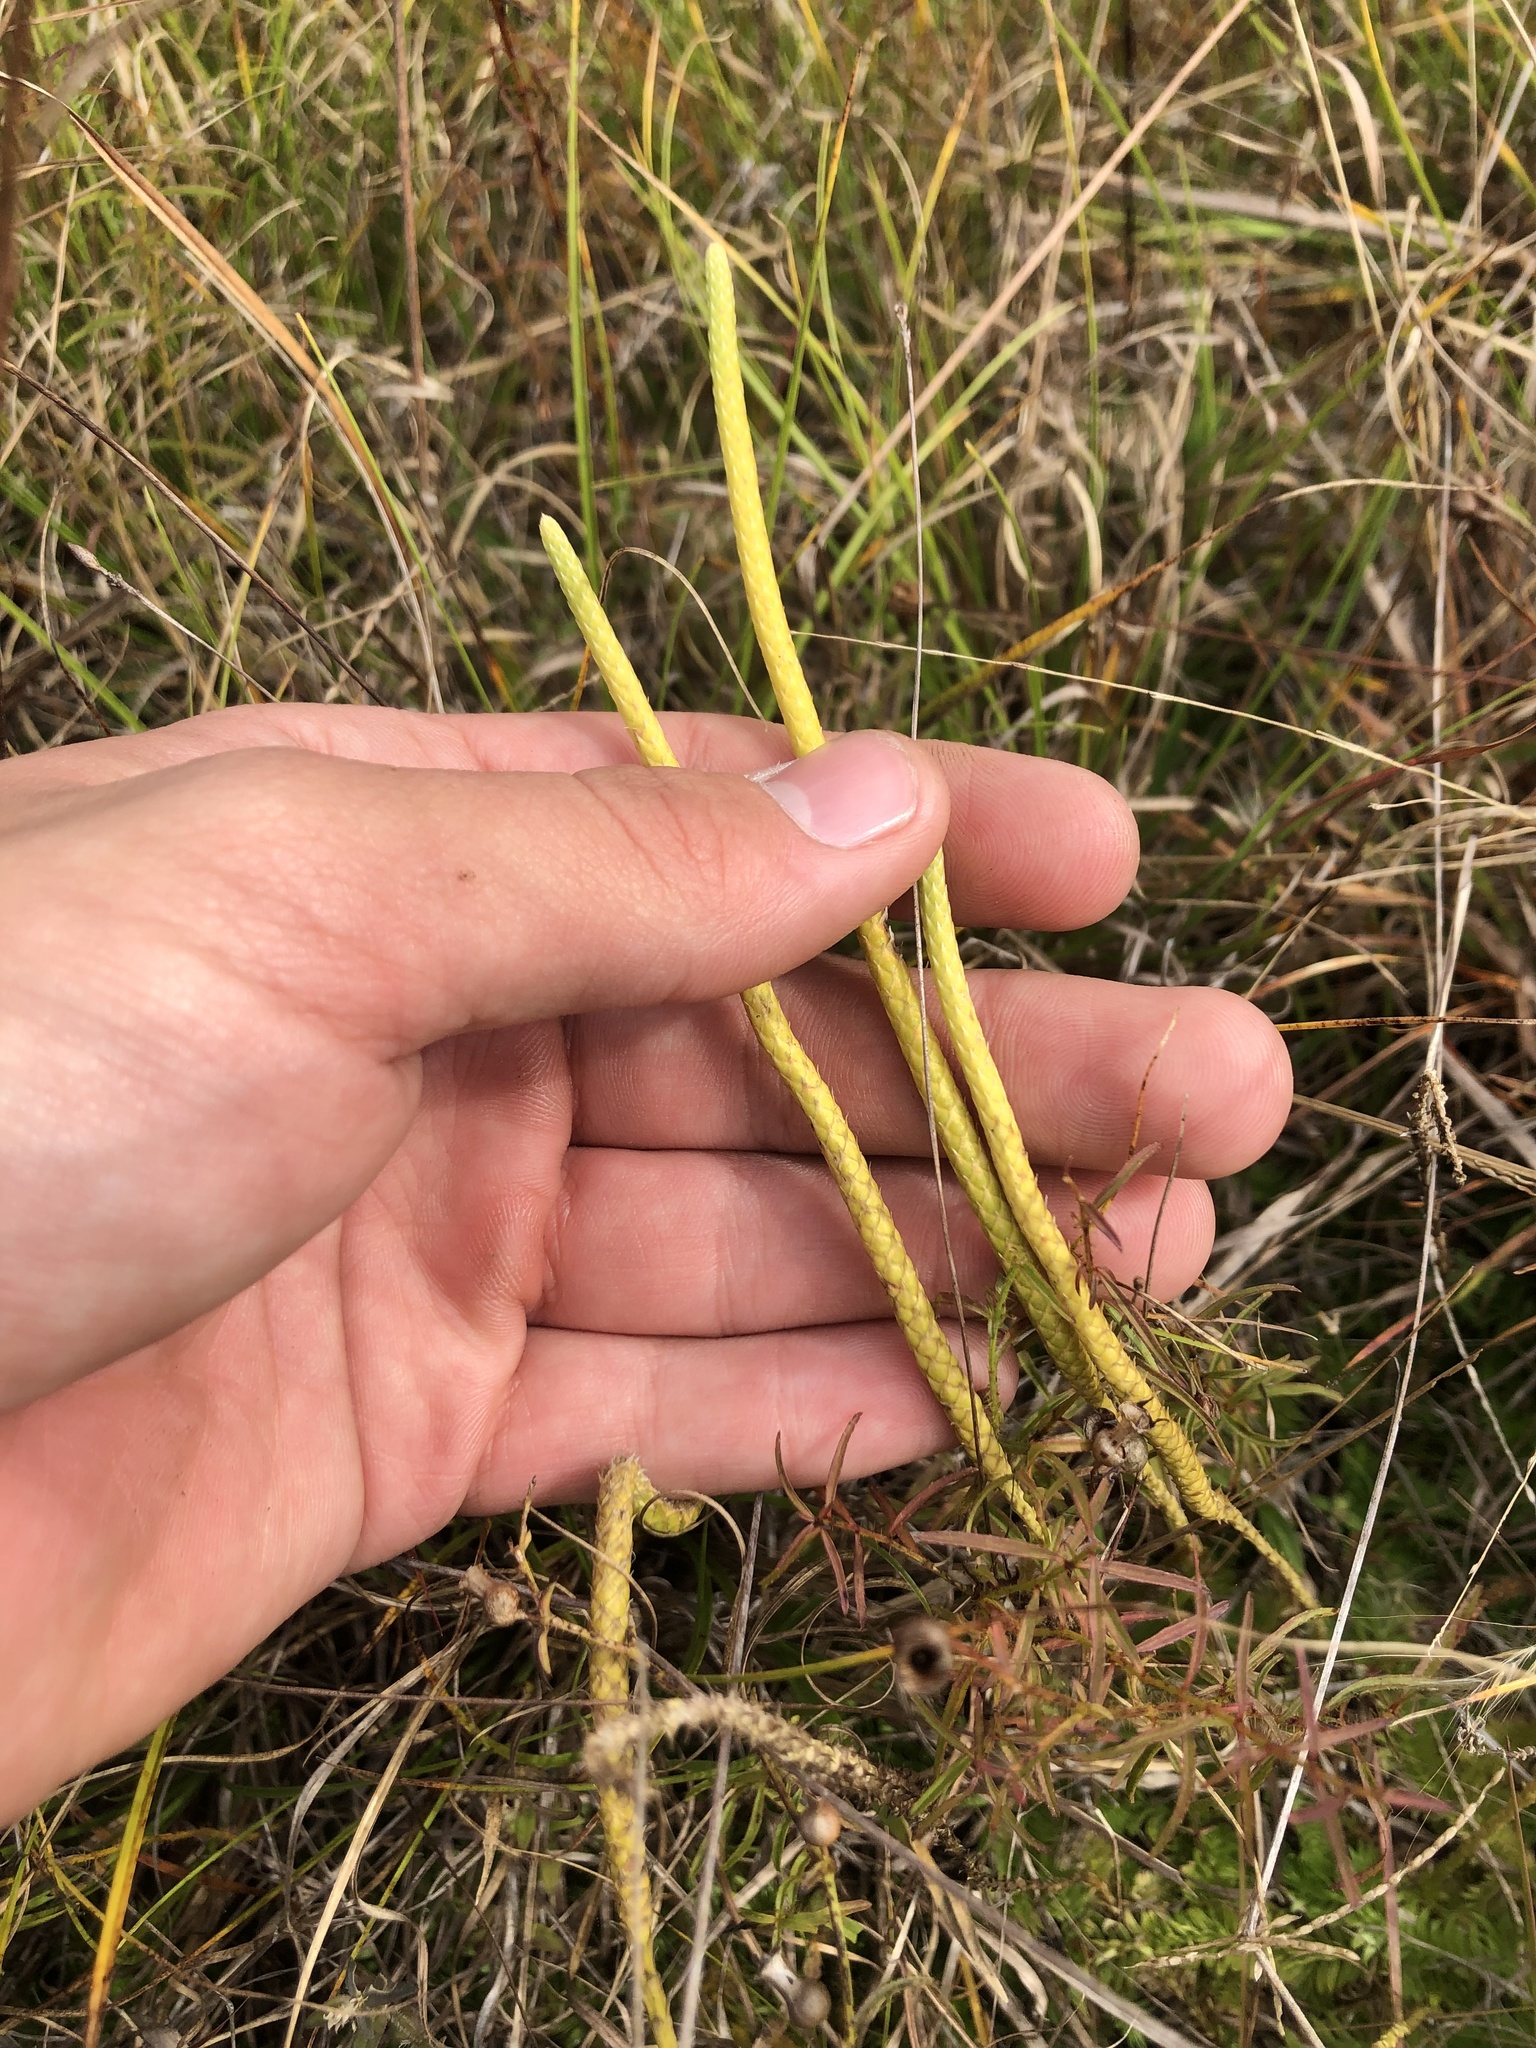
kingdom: Plantae
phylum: Tracheophyta
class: Lycopodiopsida
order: Lycopodiales
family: Lycopodiaceae
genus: Pseudolycopodiella
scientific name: Pseudolycopodiella caroliniana
